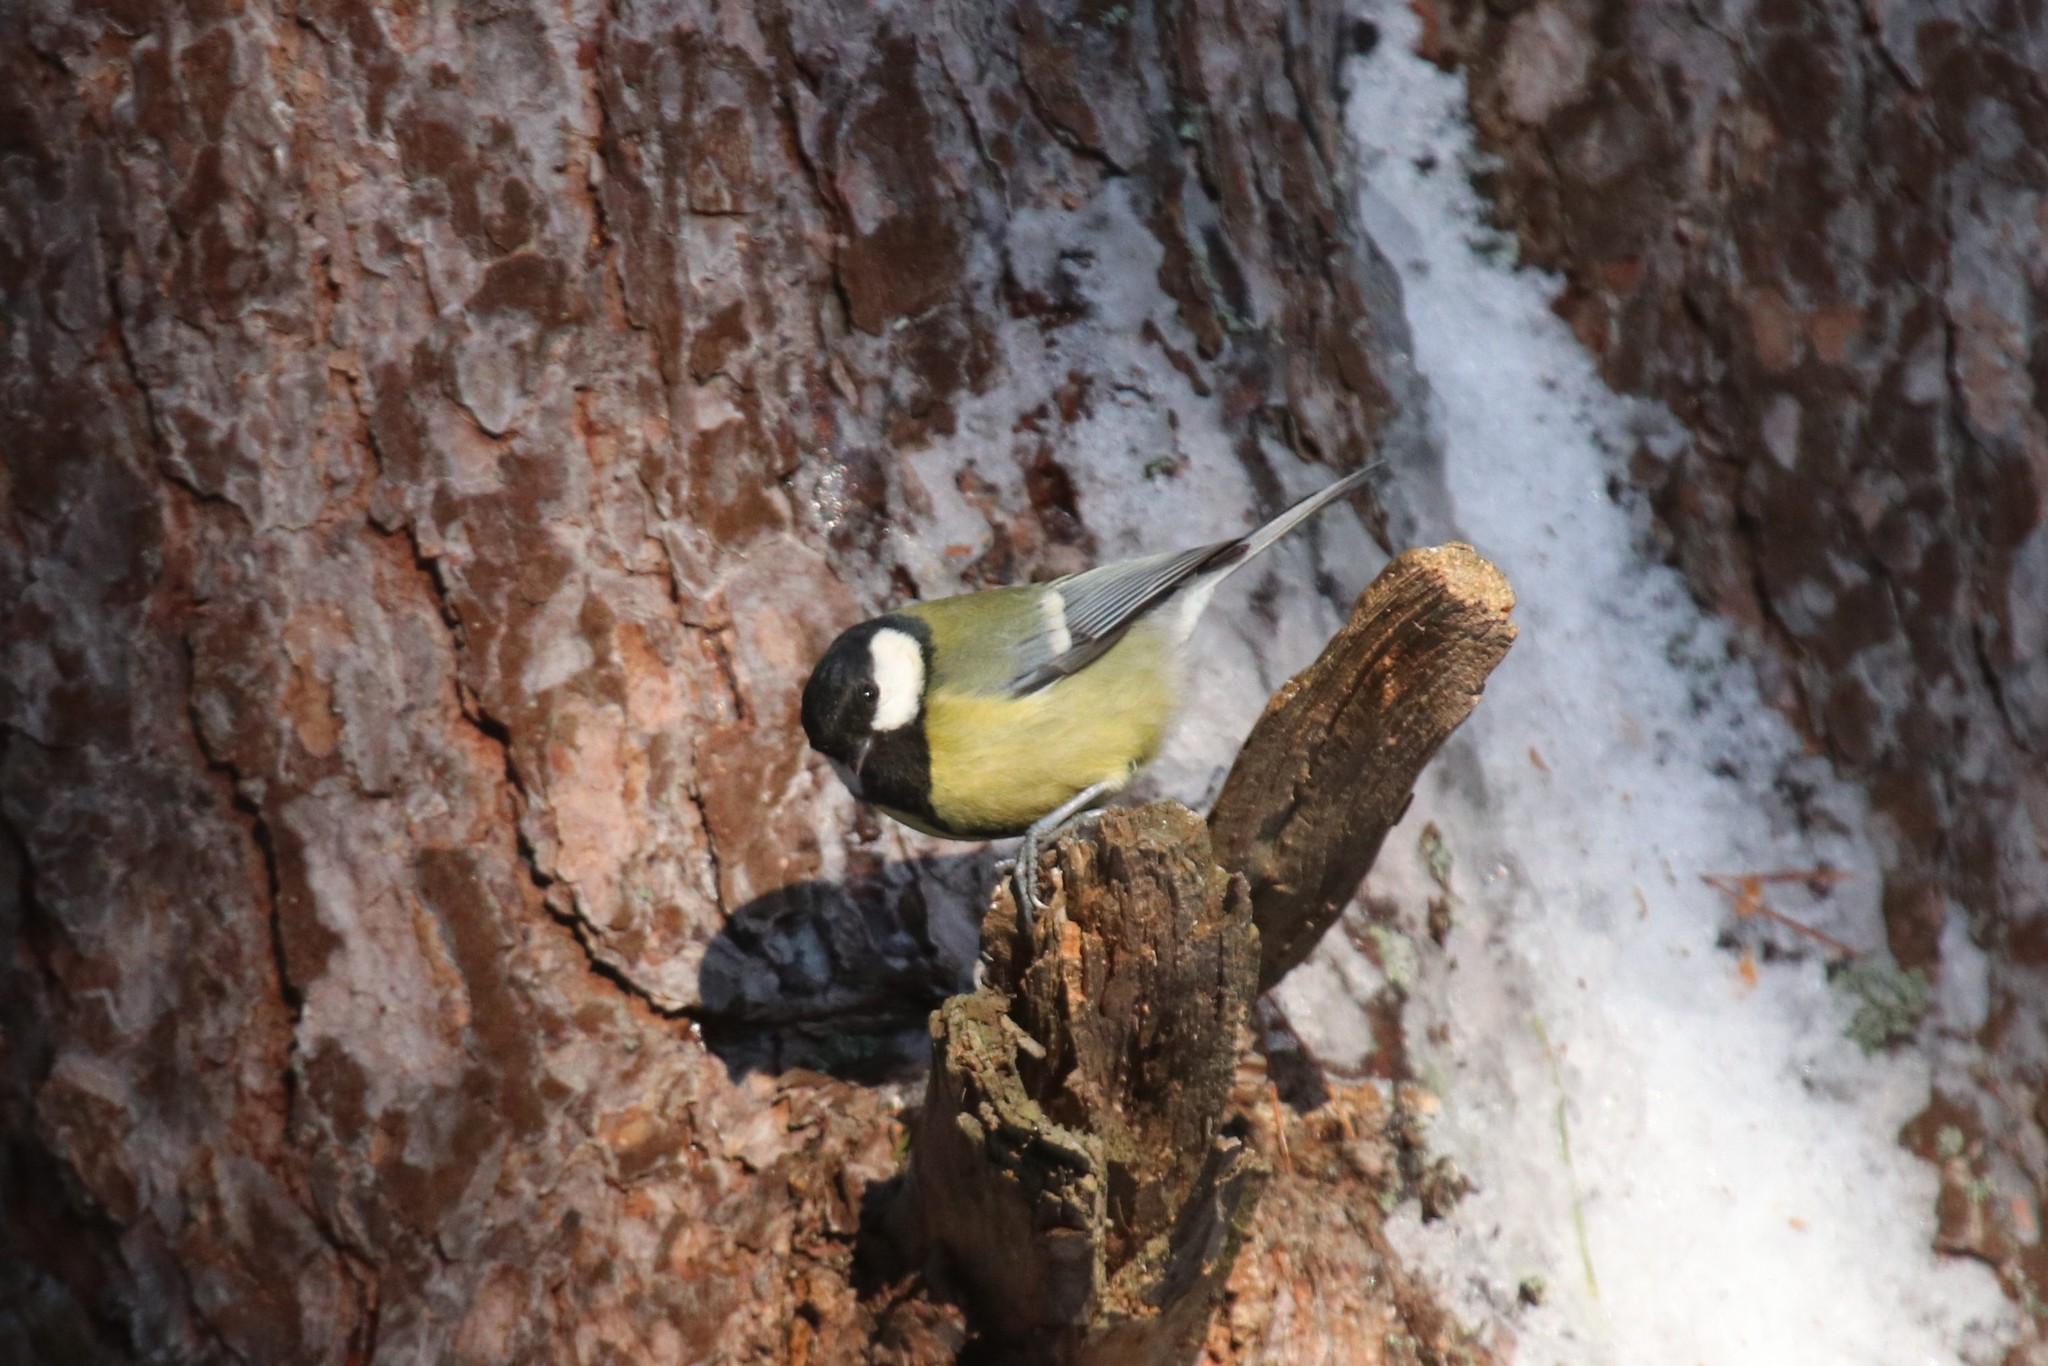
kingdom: Animalia
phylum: Chordata
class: Aves
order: Passeriformes
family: Paridae
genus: Parus
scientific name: Parus major
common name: Great tit
